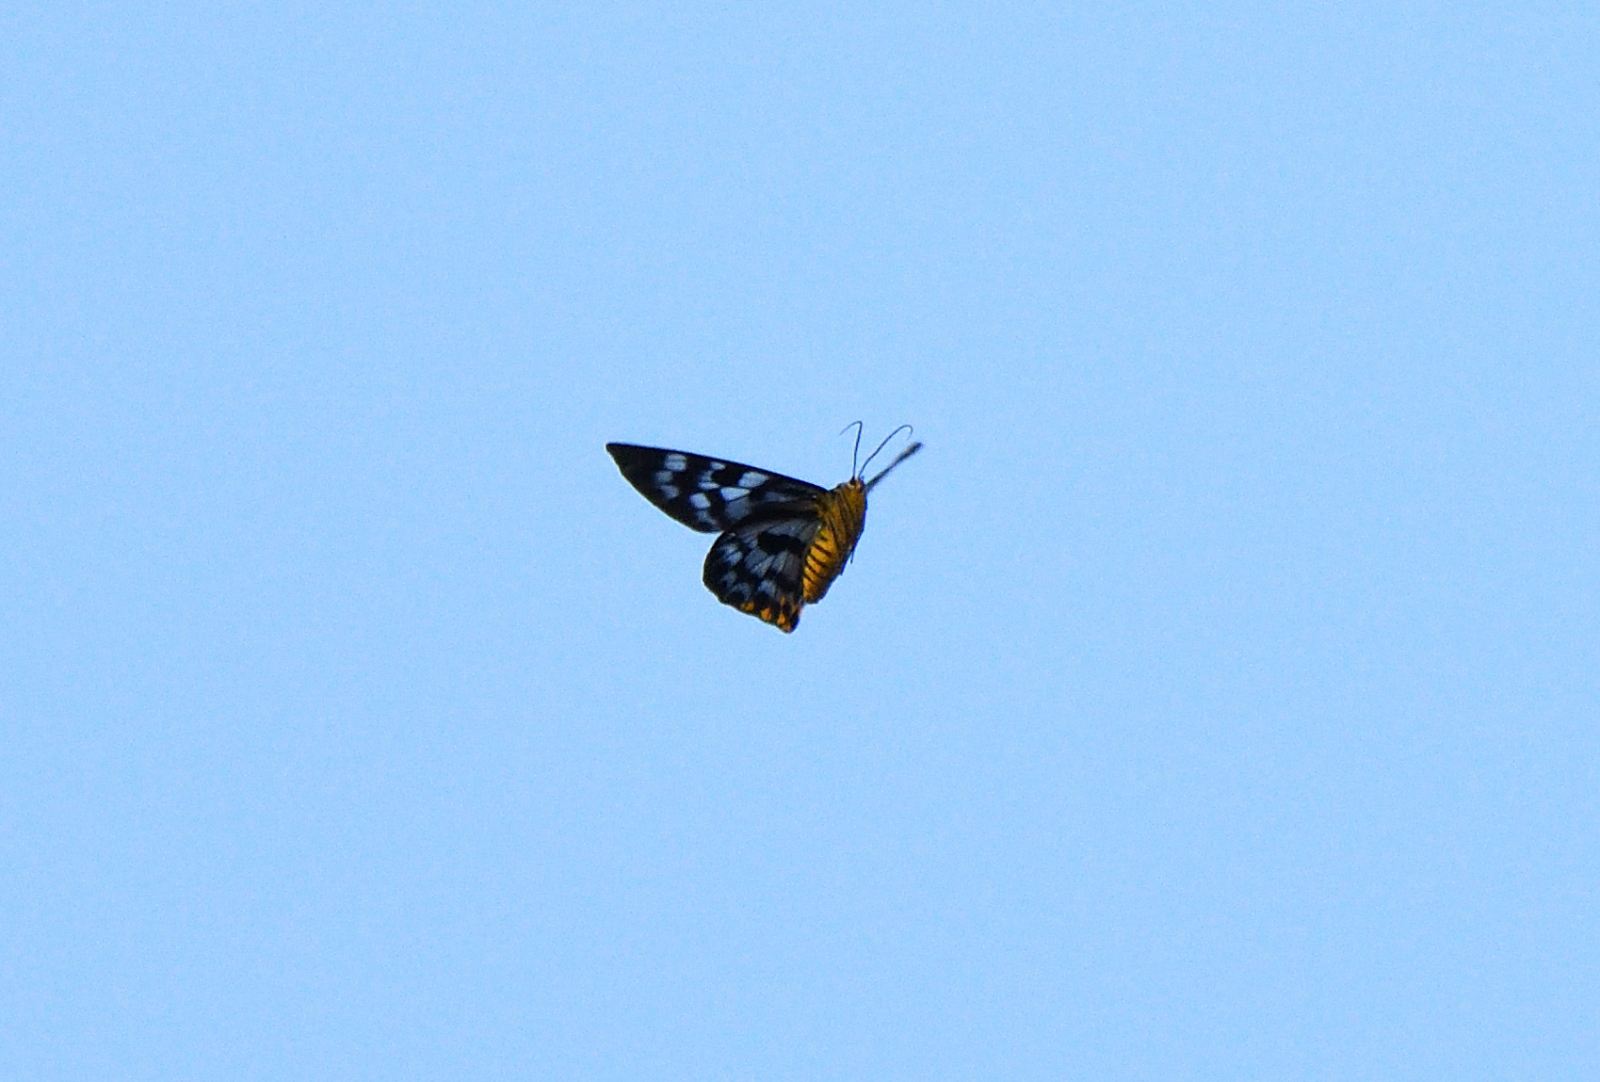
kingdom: Animalia
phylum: Arthropoda
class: Insecta
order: Lepidoptera
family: Geometridae
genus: Dysphania
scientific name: Dysphania nelera
